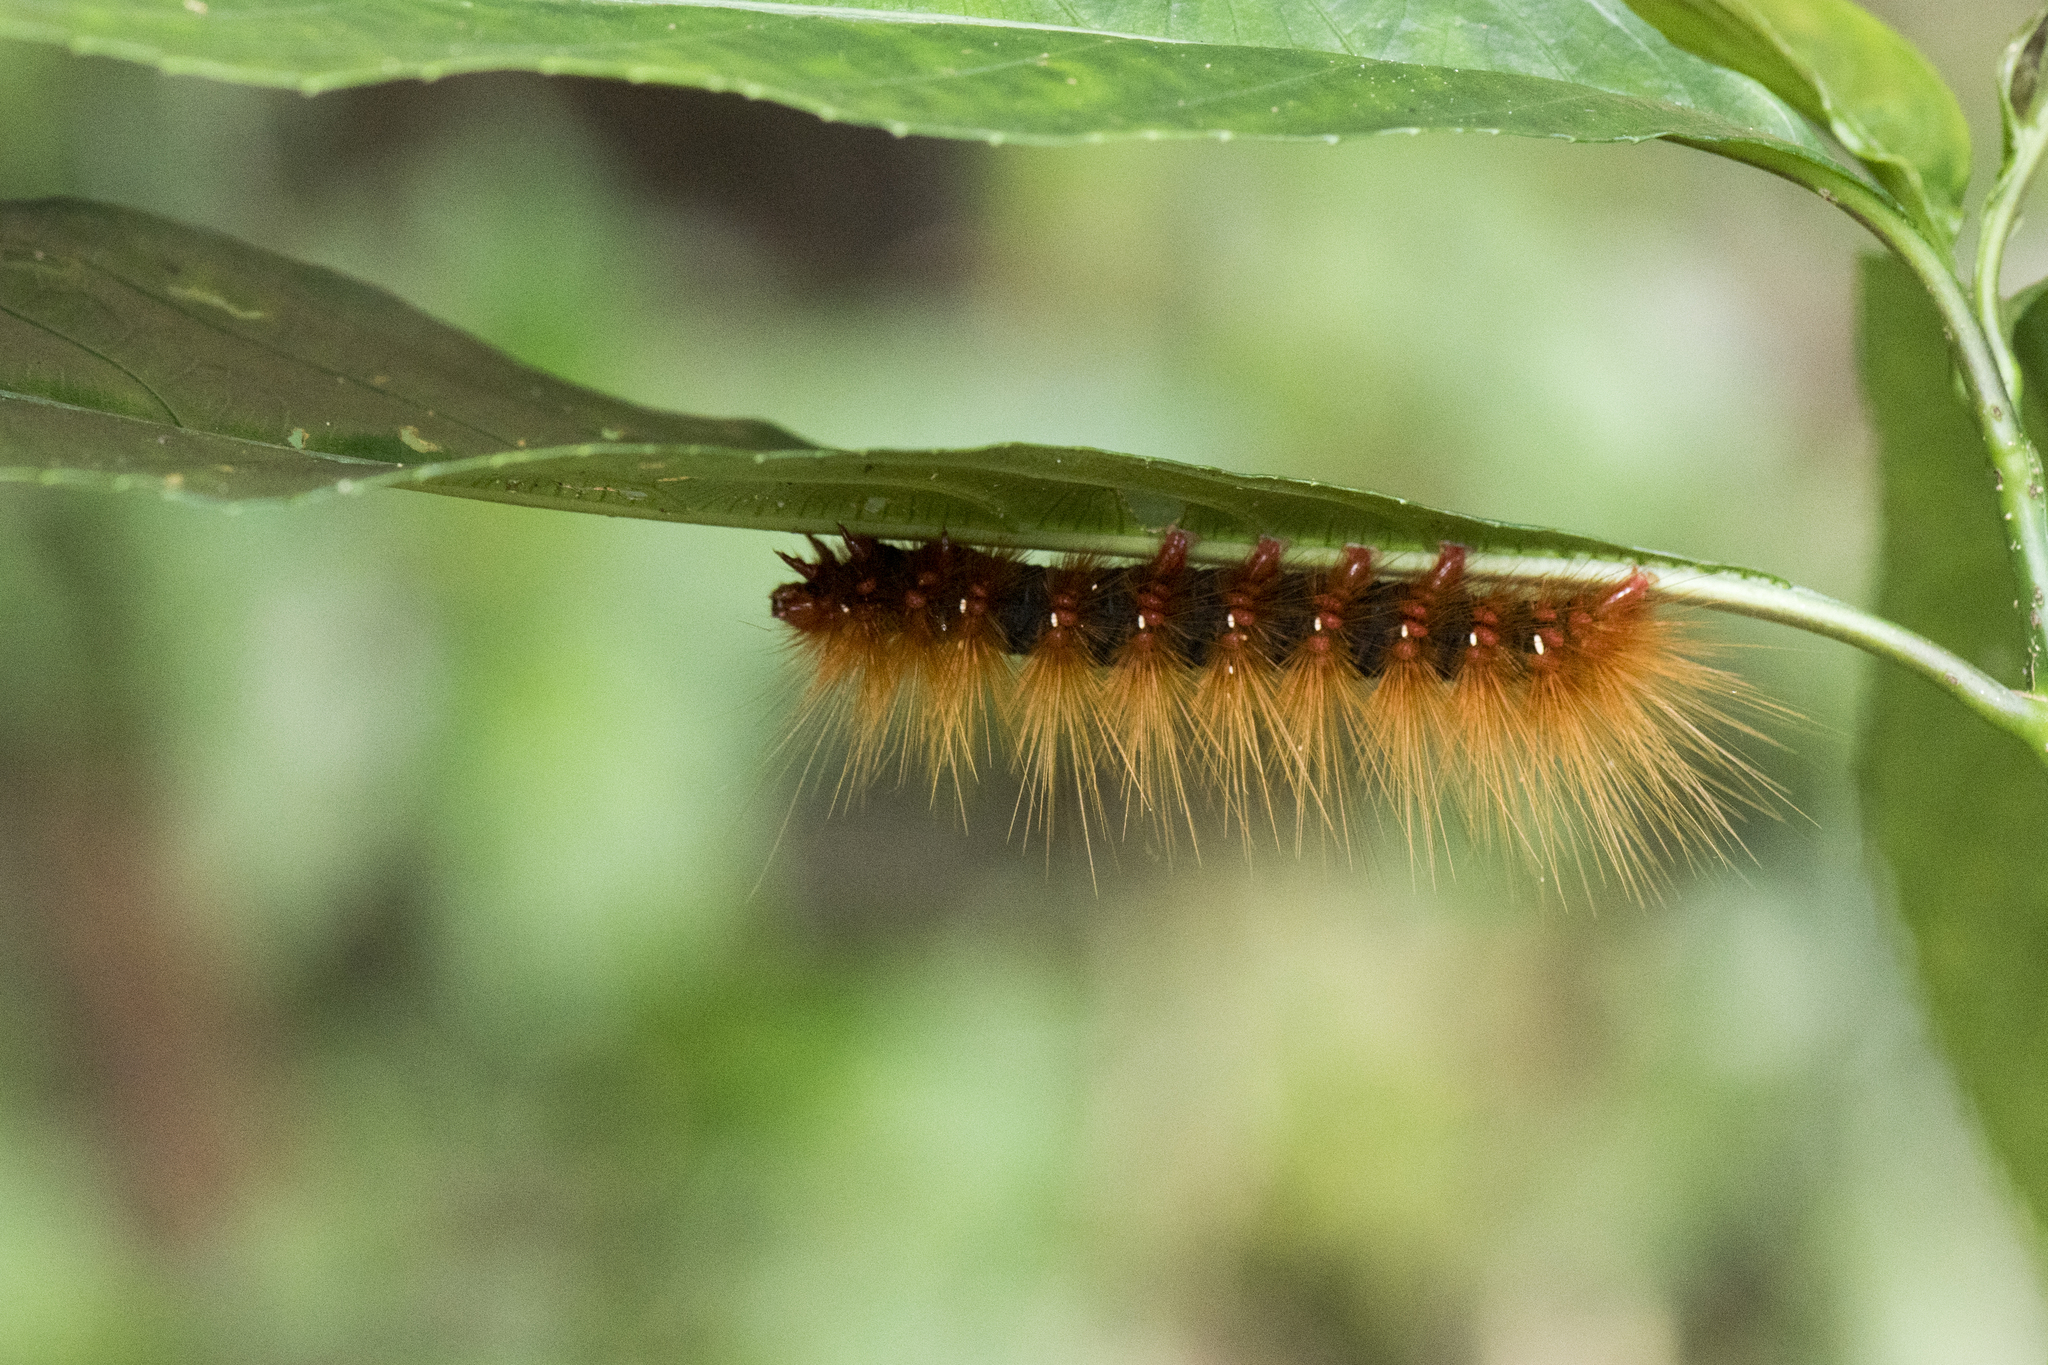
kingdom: Animalia
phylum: Arthropoda
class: Insecta
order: Lepidoptera
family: Erebidae
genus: Areas
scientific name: Areas galactina
